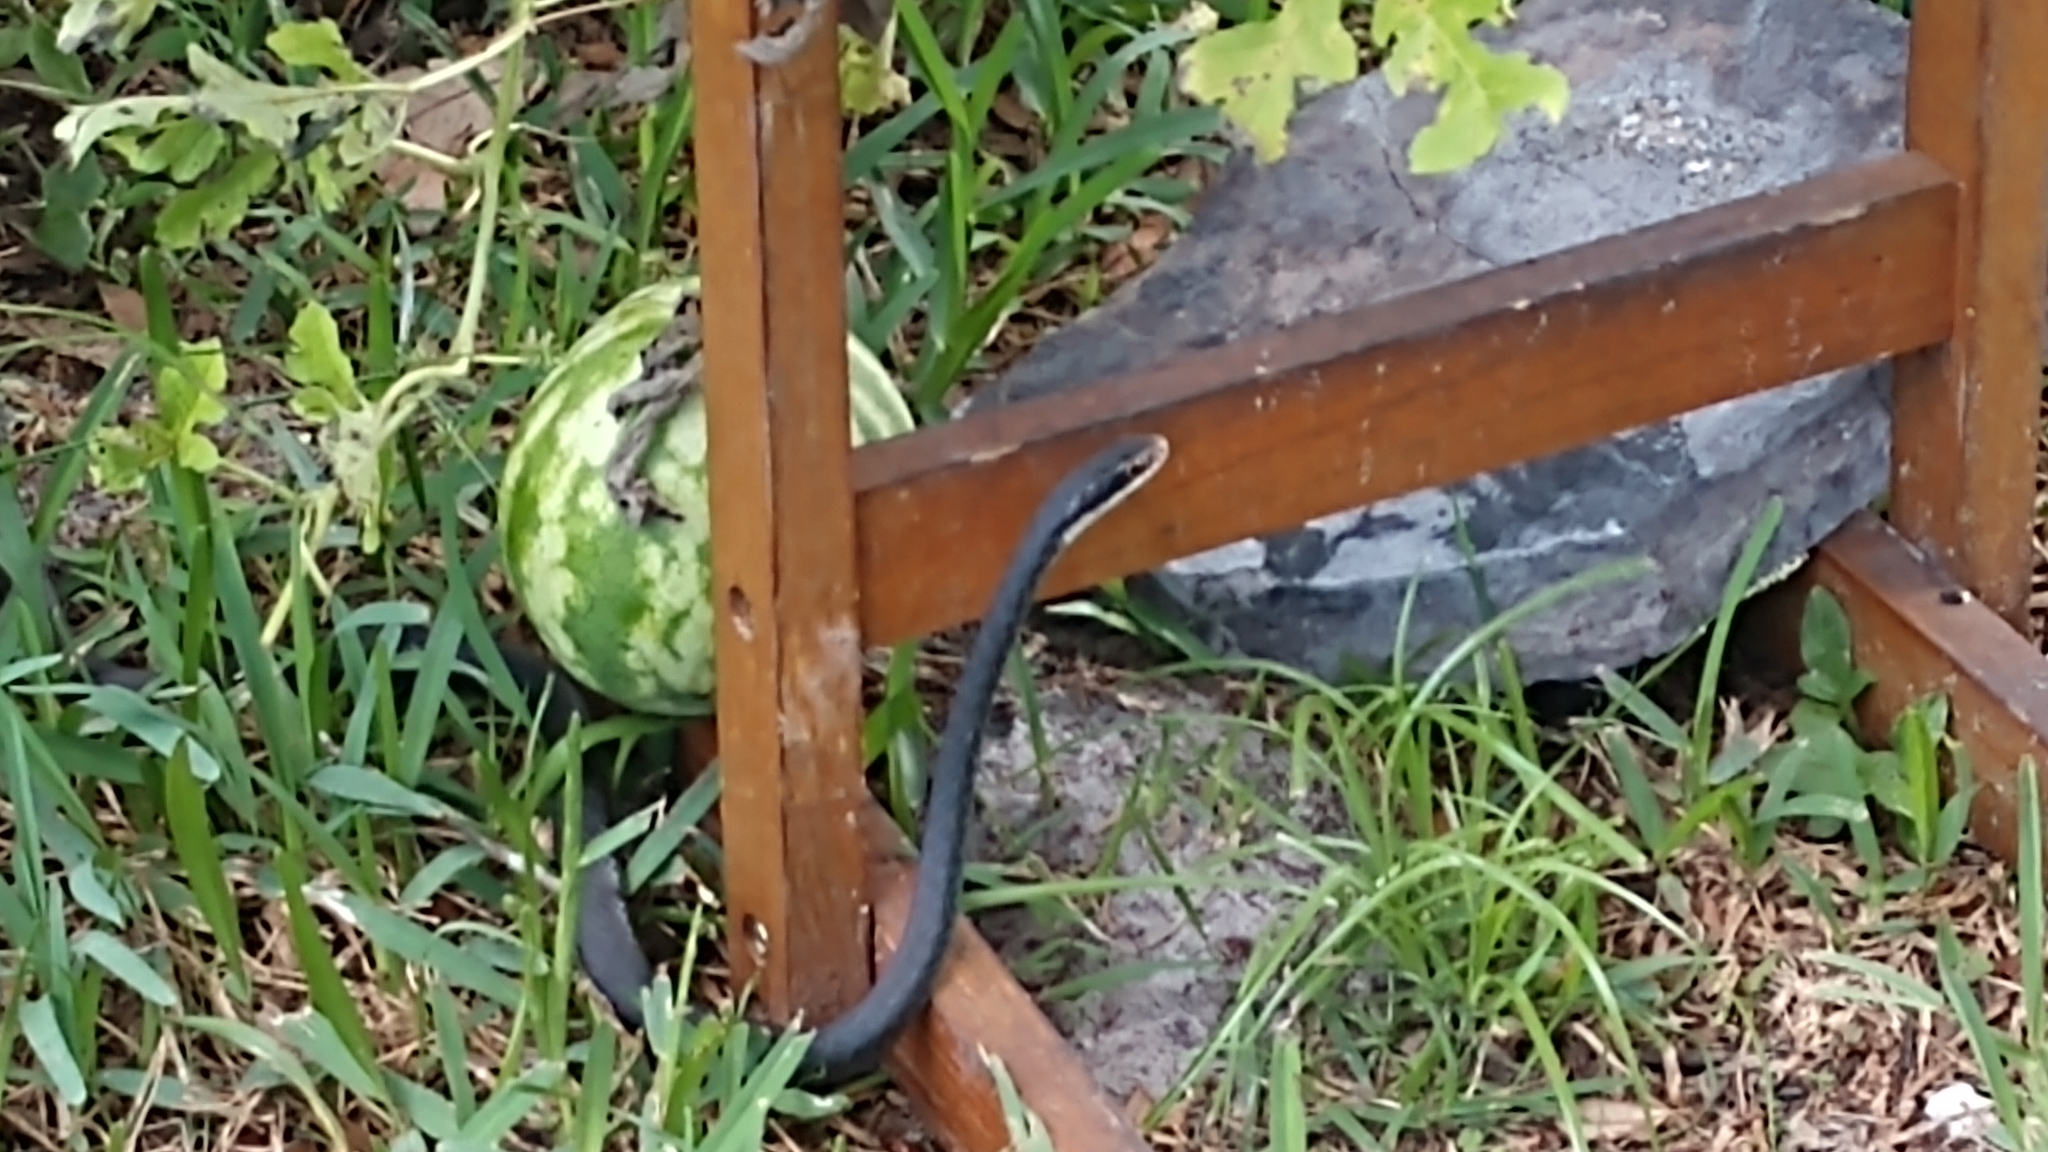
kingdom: Animalia
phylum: Chordata
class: Squamata
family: Colubridae
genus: Coluber
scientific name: Coluber constrictor
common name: Eastern racer
